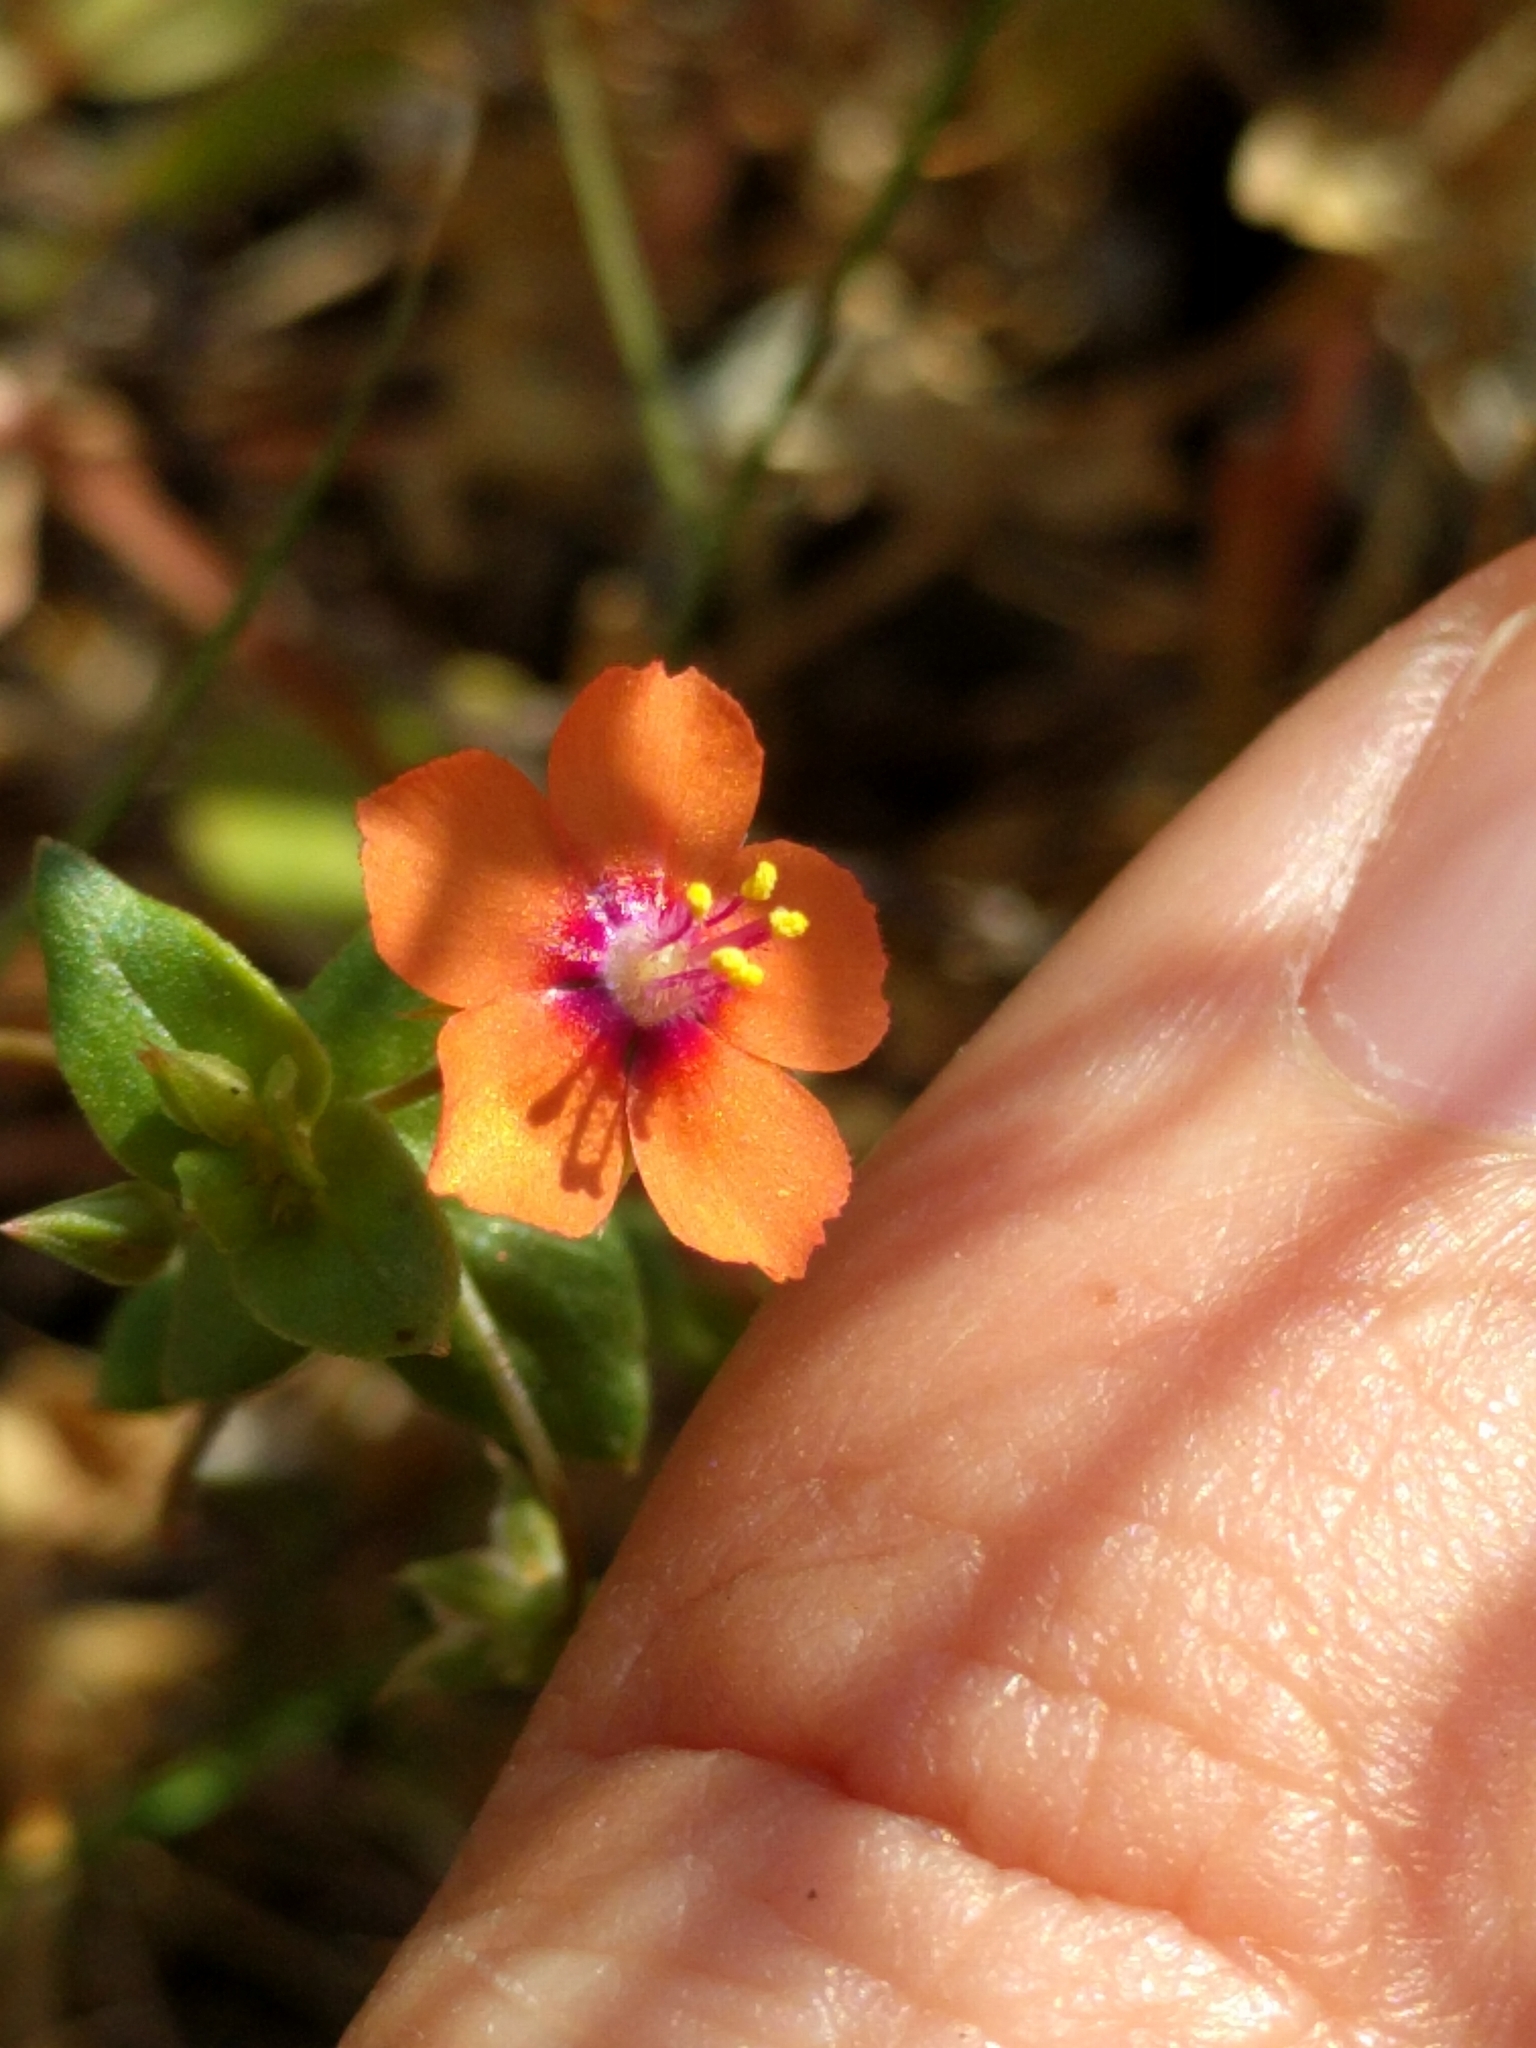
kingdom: Plantae
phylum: Tracheophyta
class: Magnoliopsida
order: Ericales
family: Primulaceae
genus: Lysimachia
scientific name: Lysimachia arvensis
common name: Scarlet pimpernel
